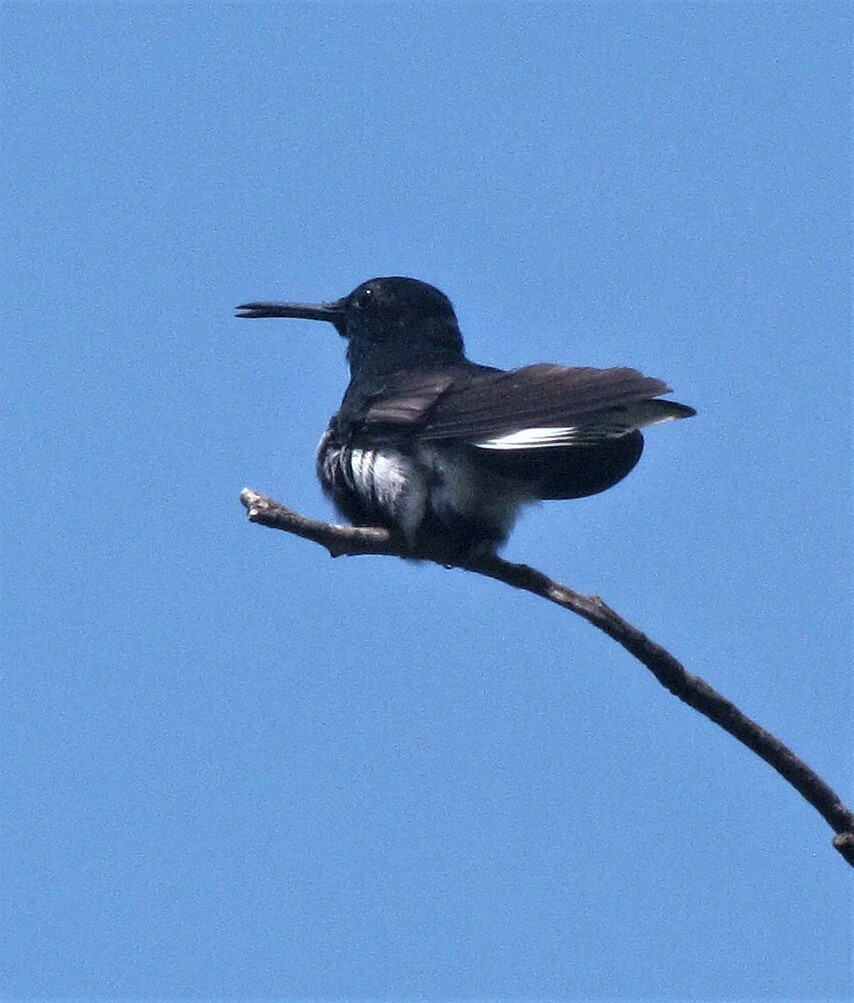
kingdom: Animalia
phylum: Chordata
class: Aves
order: Apodiformes
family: Trochilidae
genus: Florisuga
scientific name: Florisuga fusca
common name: Black jacobin
